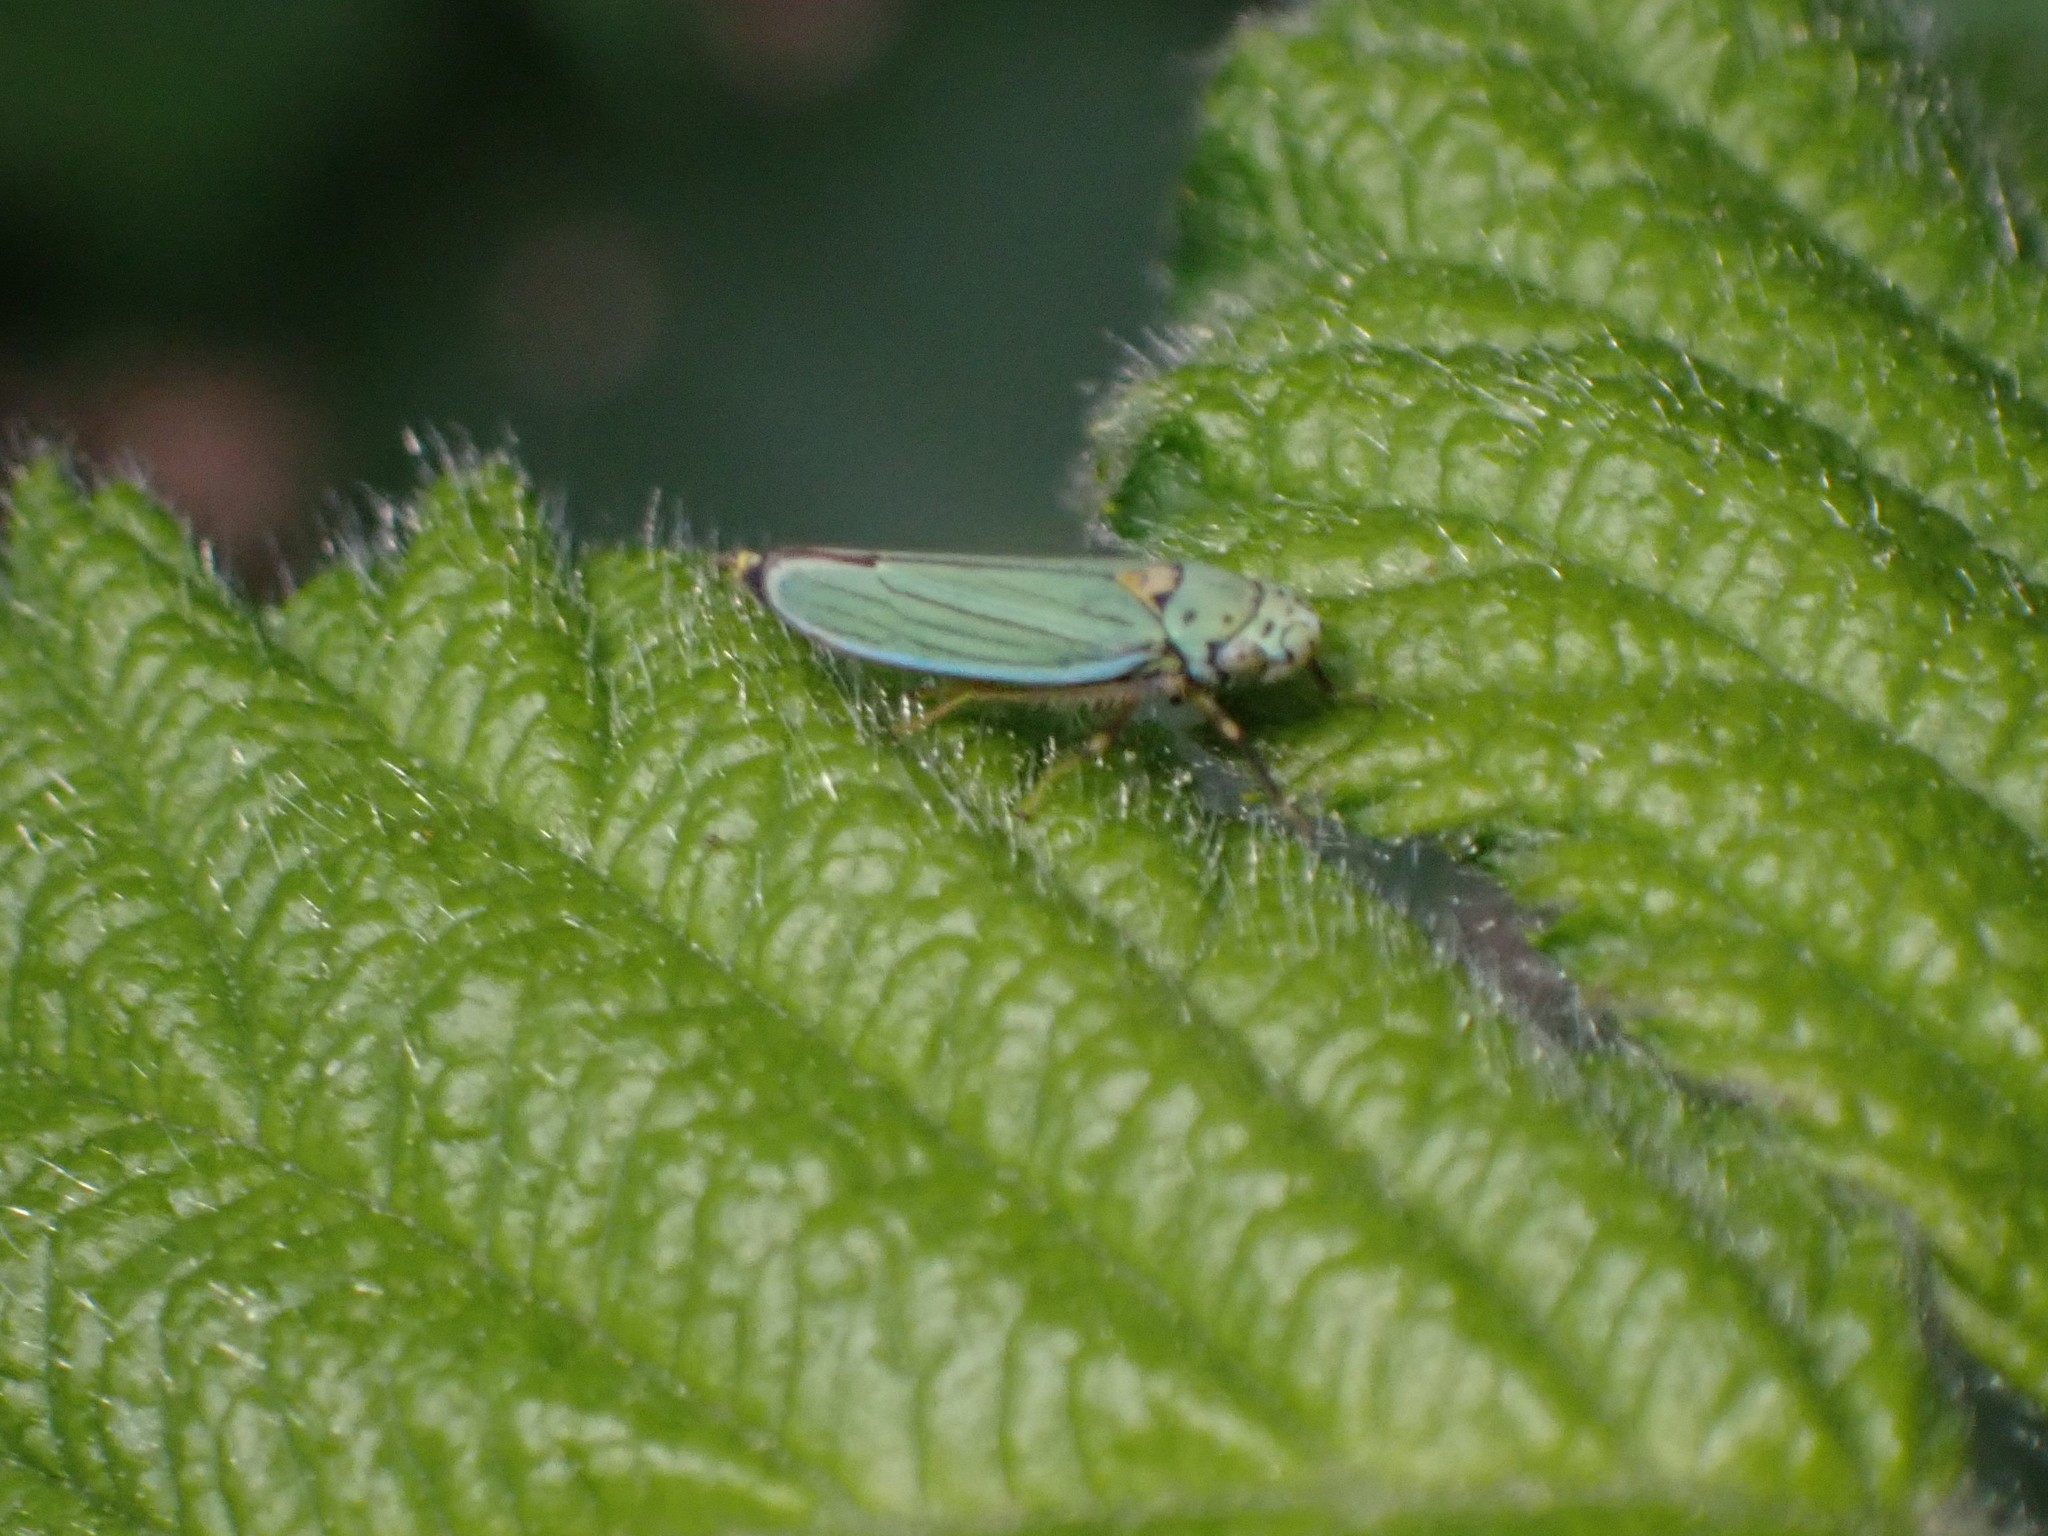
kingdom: Animalia
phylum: Arthropoda
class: Insecta
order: Hemiptera
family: Cicadellidae
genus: Graphocephala
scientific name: Graphocephala atropunctata
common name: Blue-green sharpshooter
